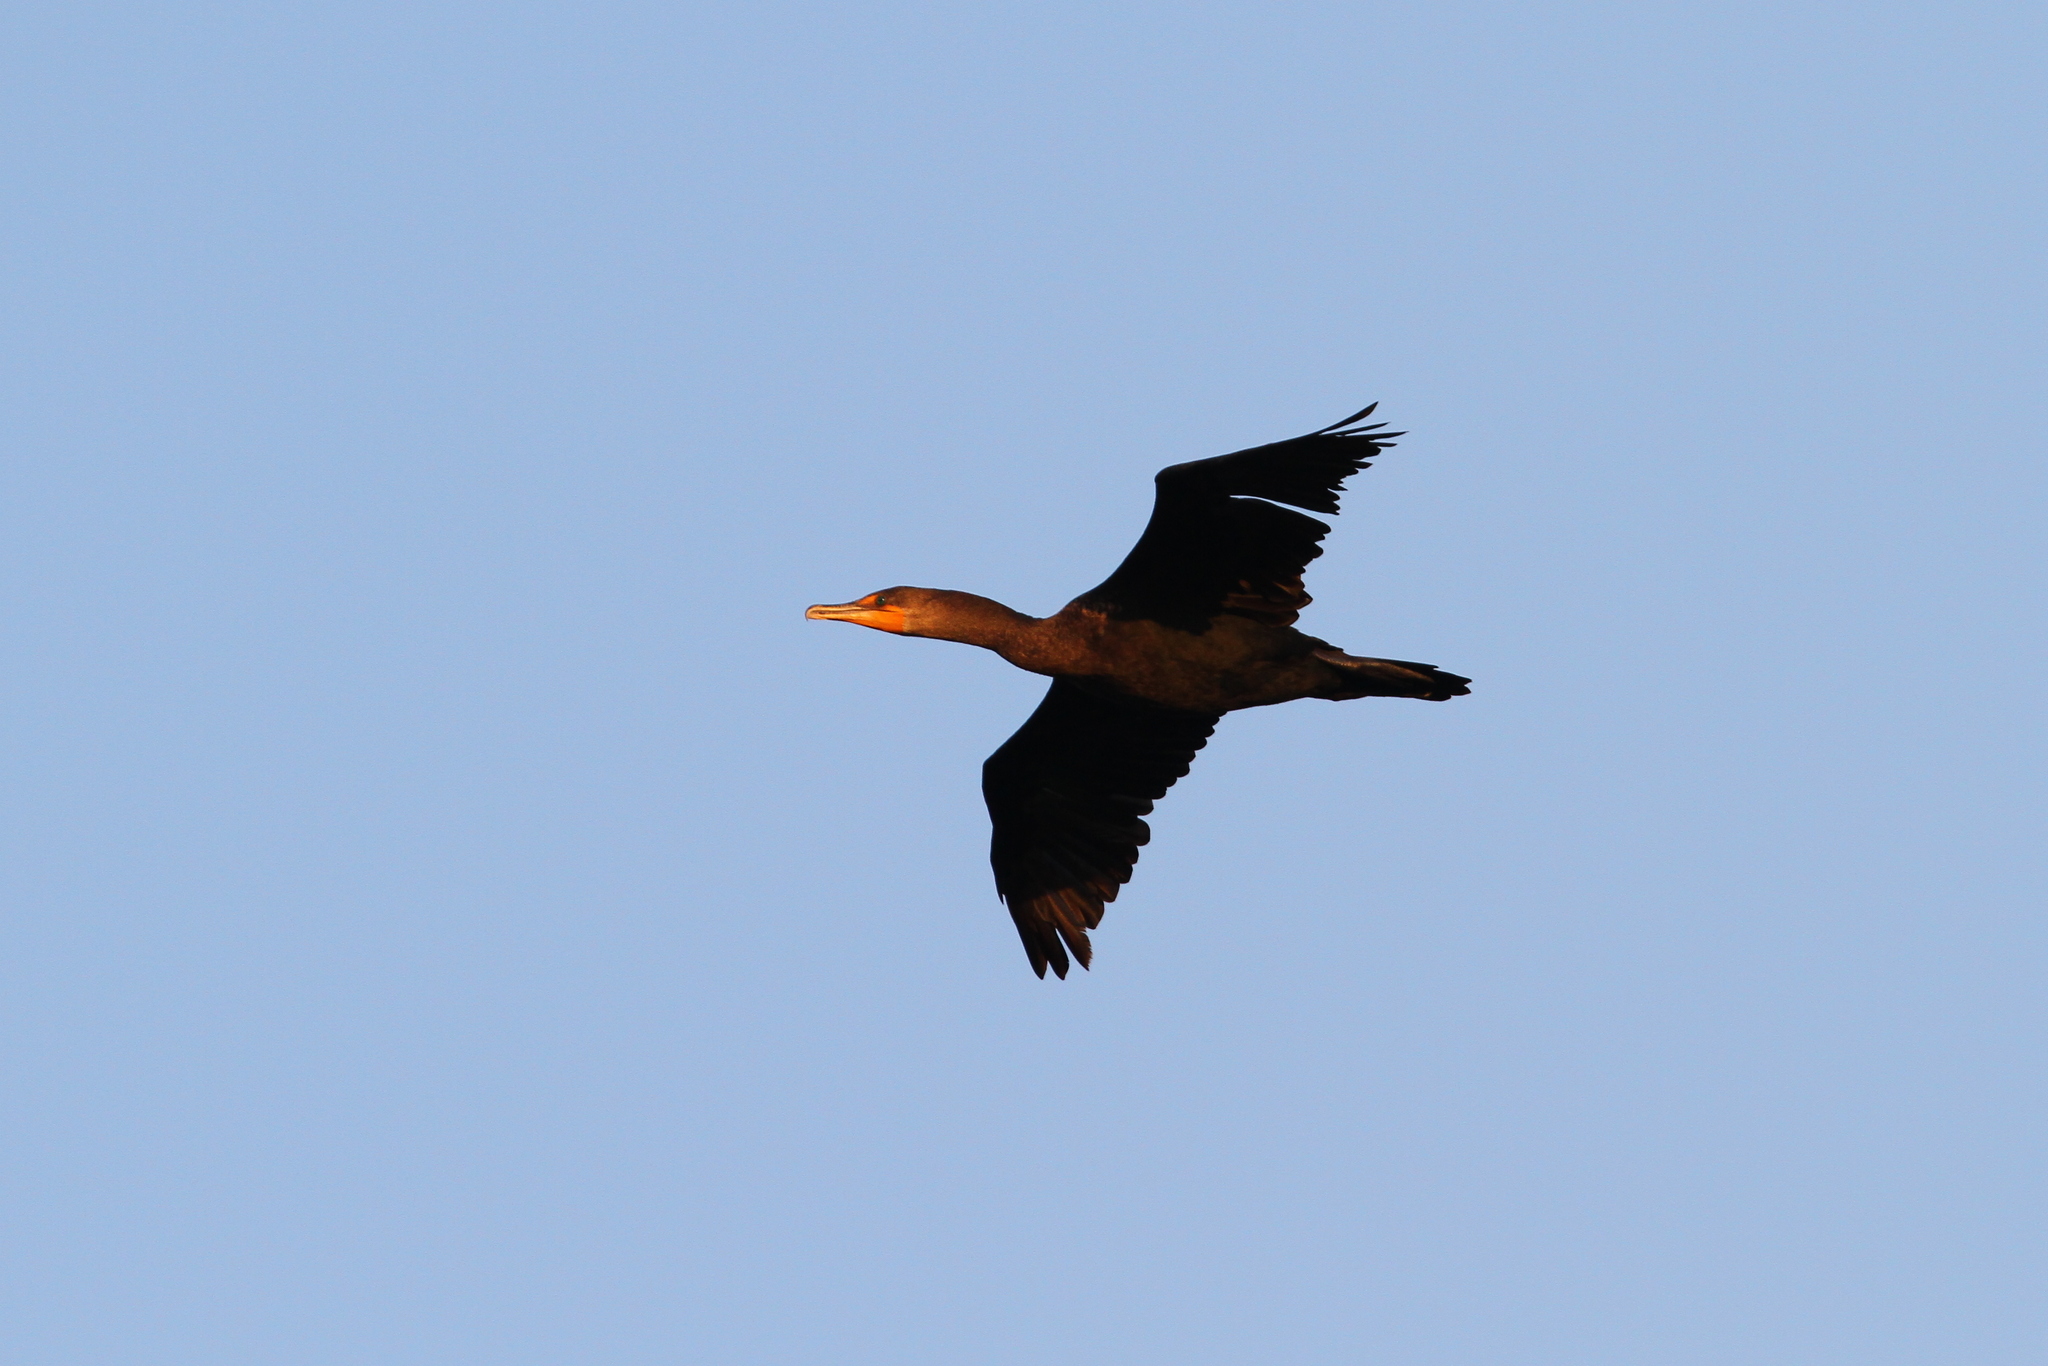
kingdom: Animalia
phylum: Chordata
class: Aves
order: Suliformes
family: Phalacrocoracidae
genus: Phalacrocorax
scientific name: Phalacrocorax auritus
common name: Double-crested cormorant
